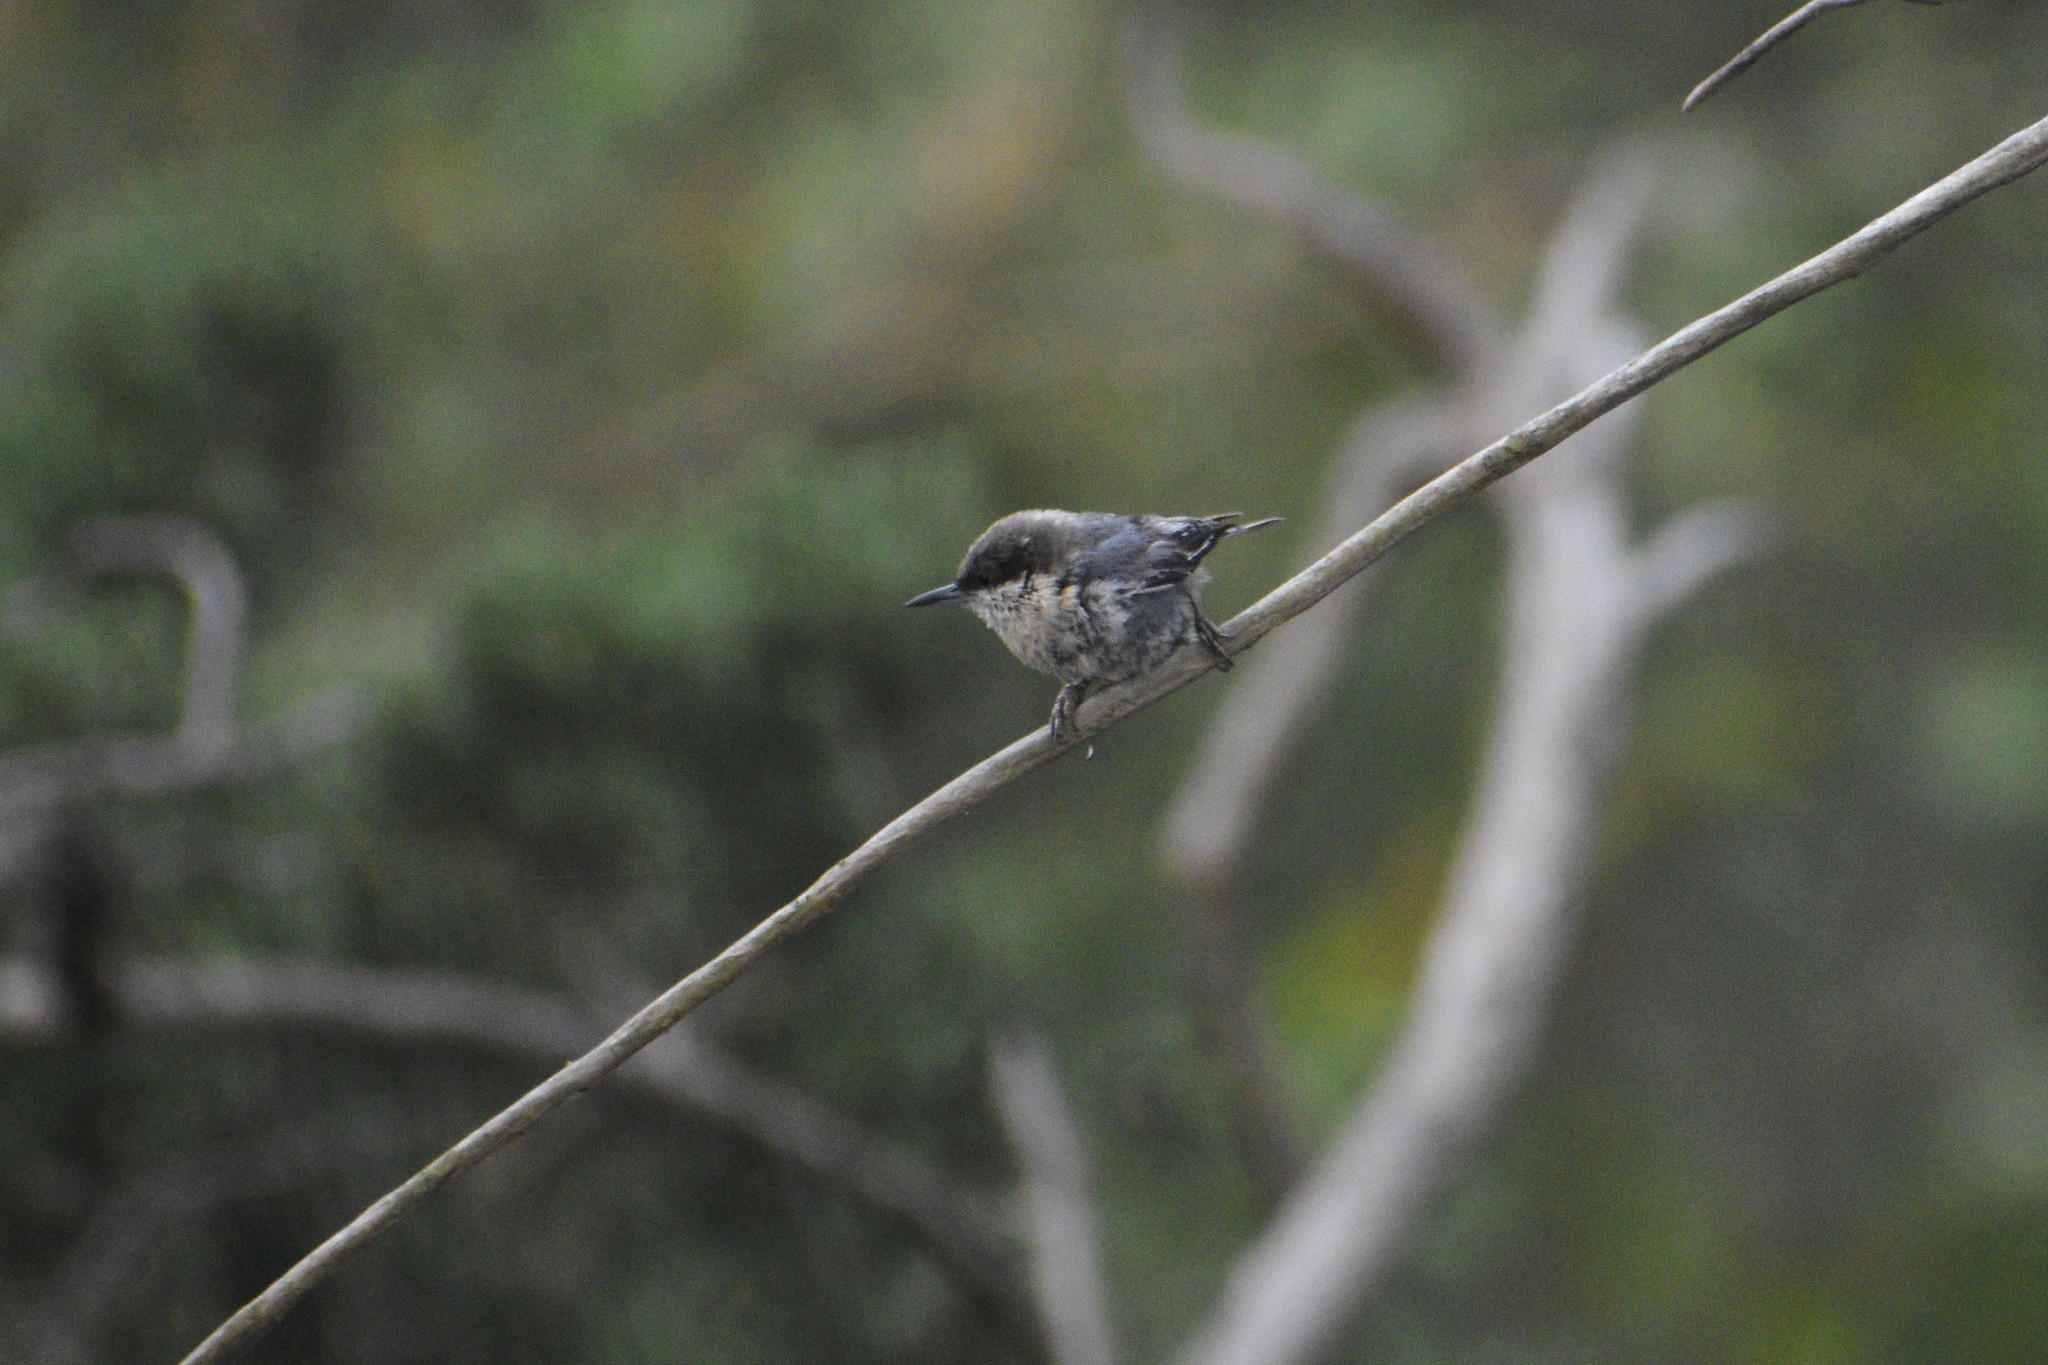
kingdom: Animalia
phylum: Chordata
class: Aves
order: Passeriformes
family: Sittidae
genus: Sitta
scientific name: Sitta pygmaea
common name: Pygmy nuthatch
